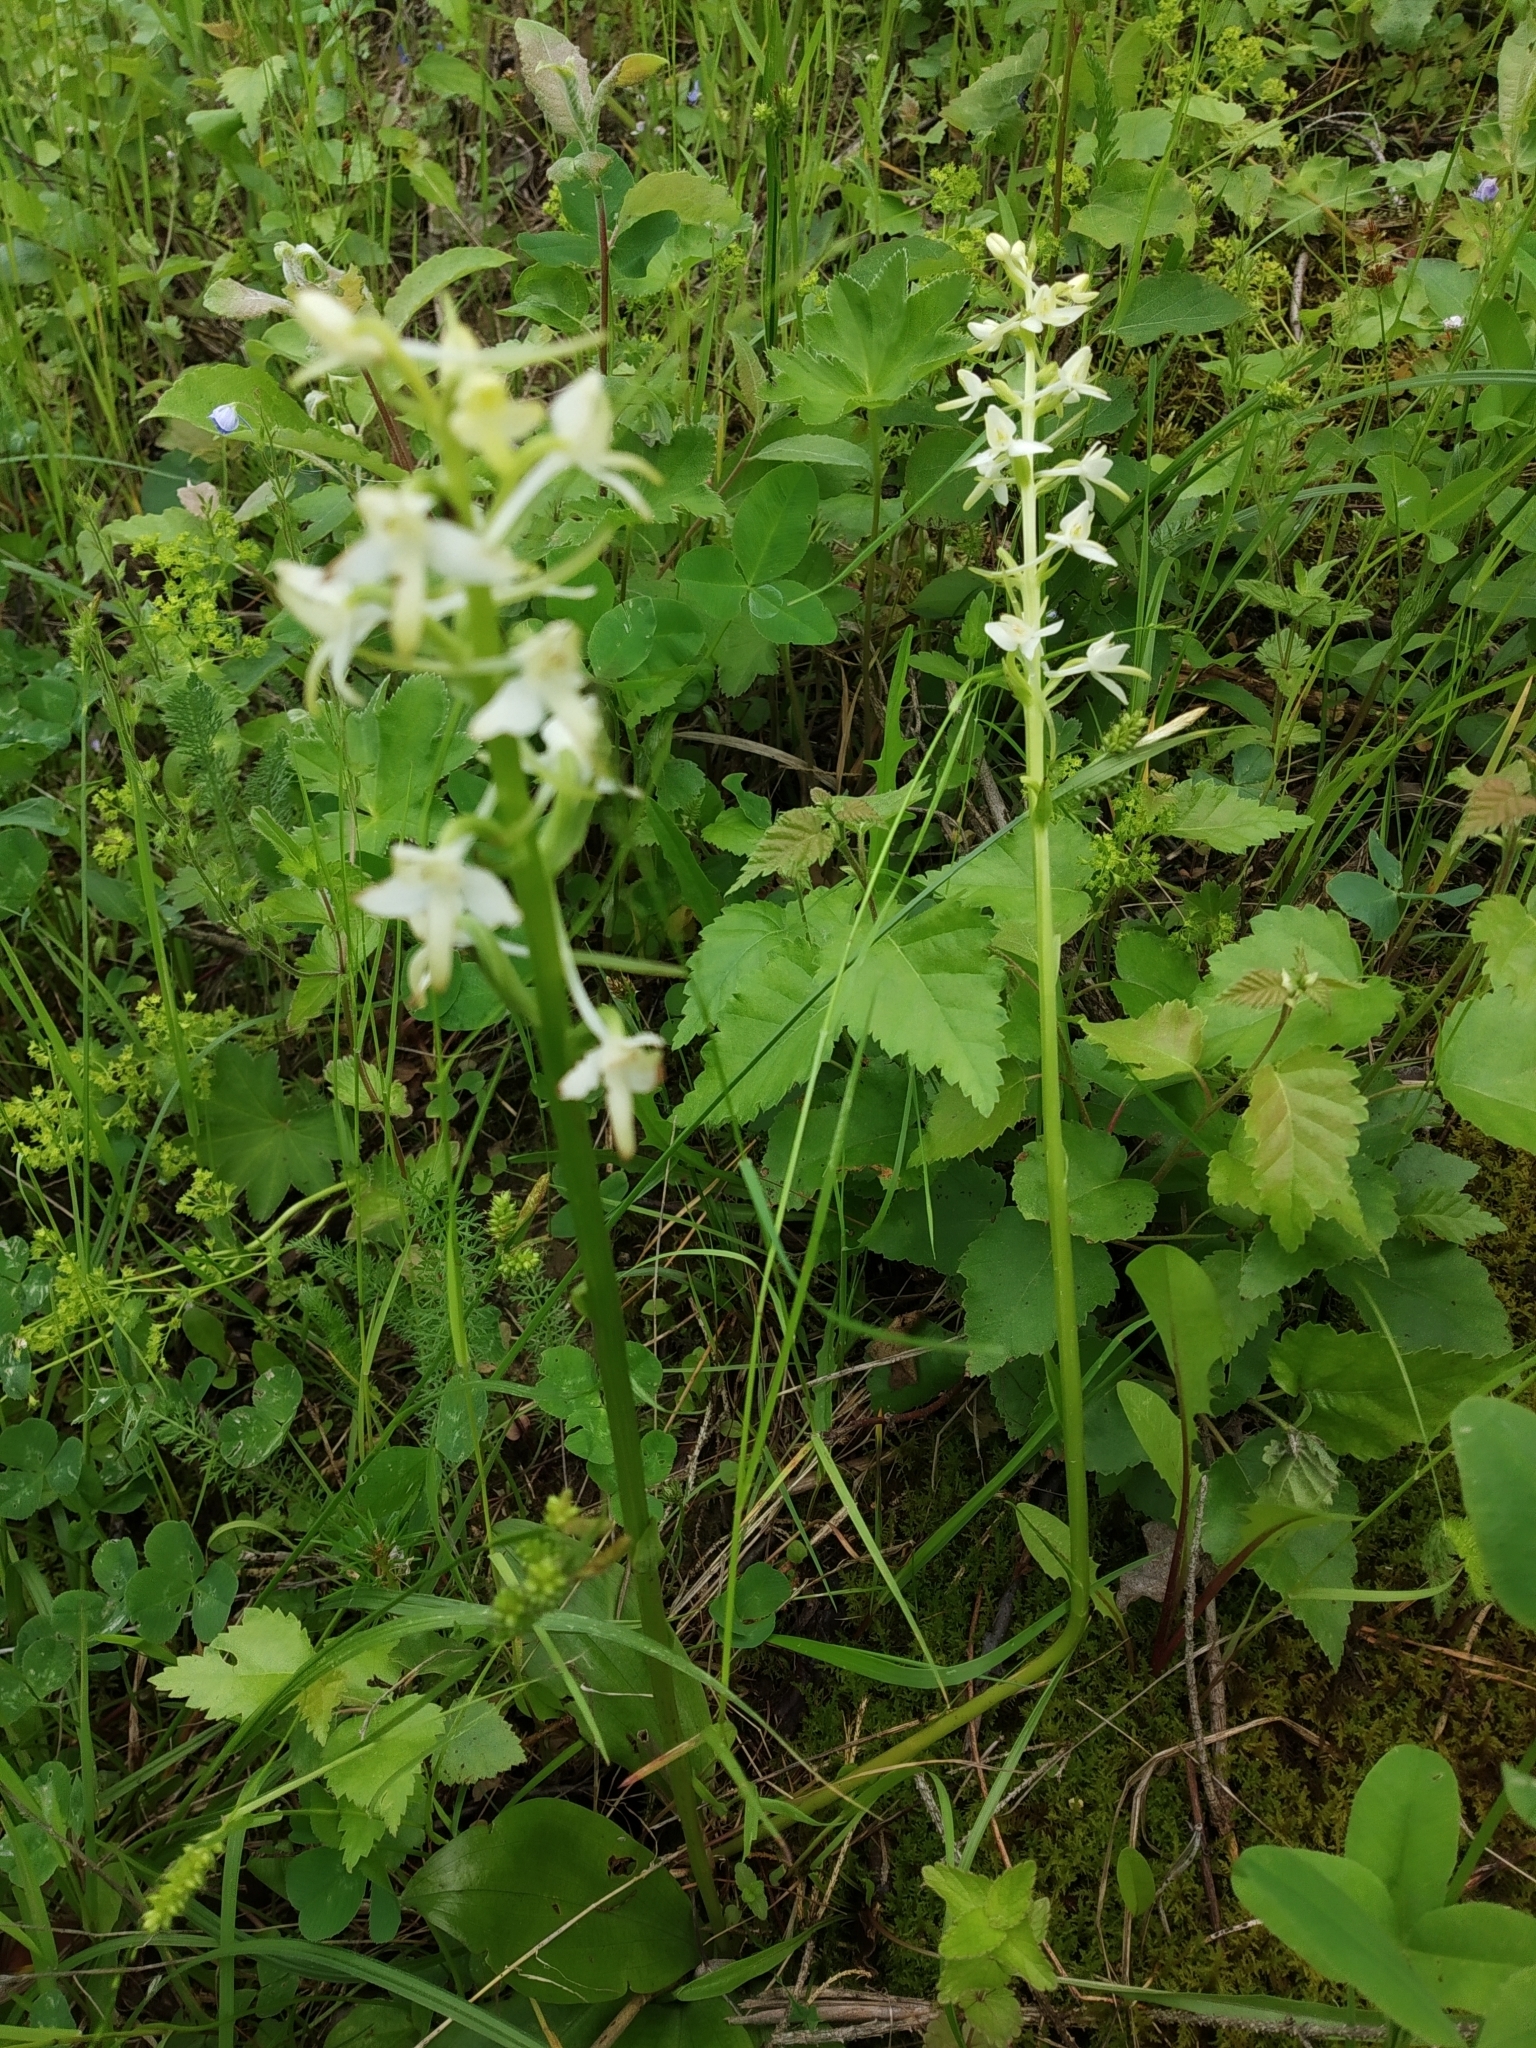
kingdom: Plantae
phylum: Tracheophyta
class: Liliopsida
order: Asparagales
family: Orchidaceae
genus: Platanthera
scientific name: Platanthera bifolia
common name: Lesser butterfly-orchid
